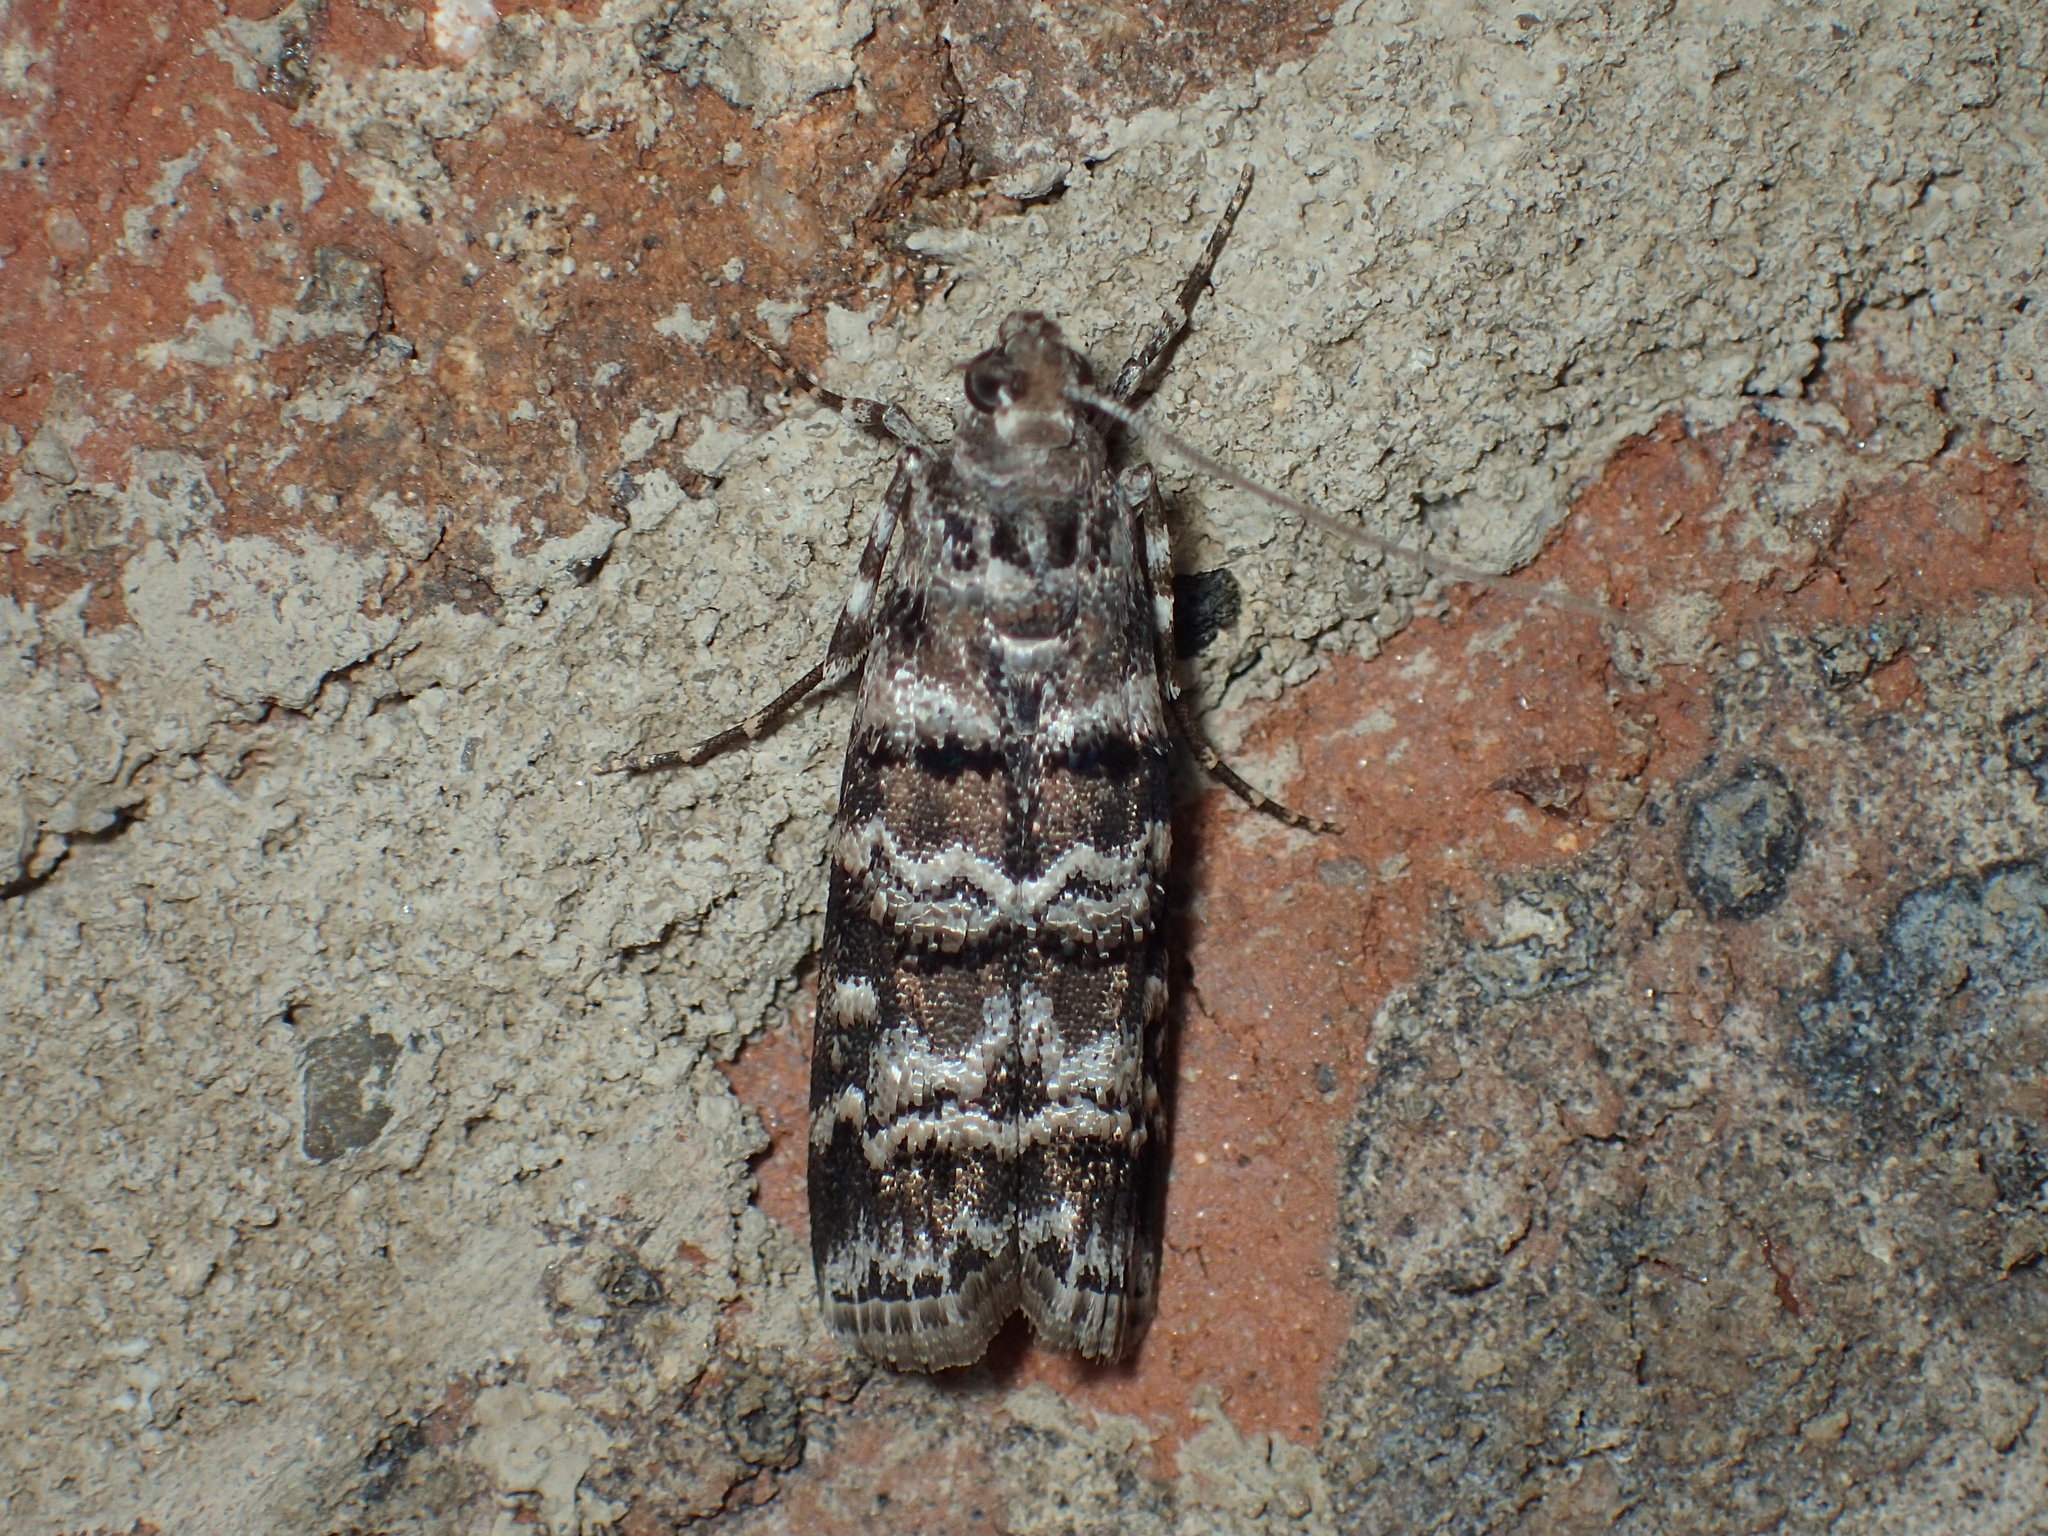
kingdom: Animalia
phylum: Arthropoda
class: Insecta
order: Lepidoptera
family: Pyralidae
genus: Dioryctria
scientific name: Dioryctria amatella
